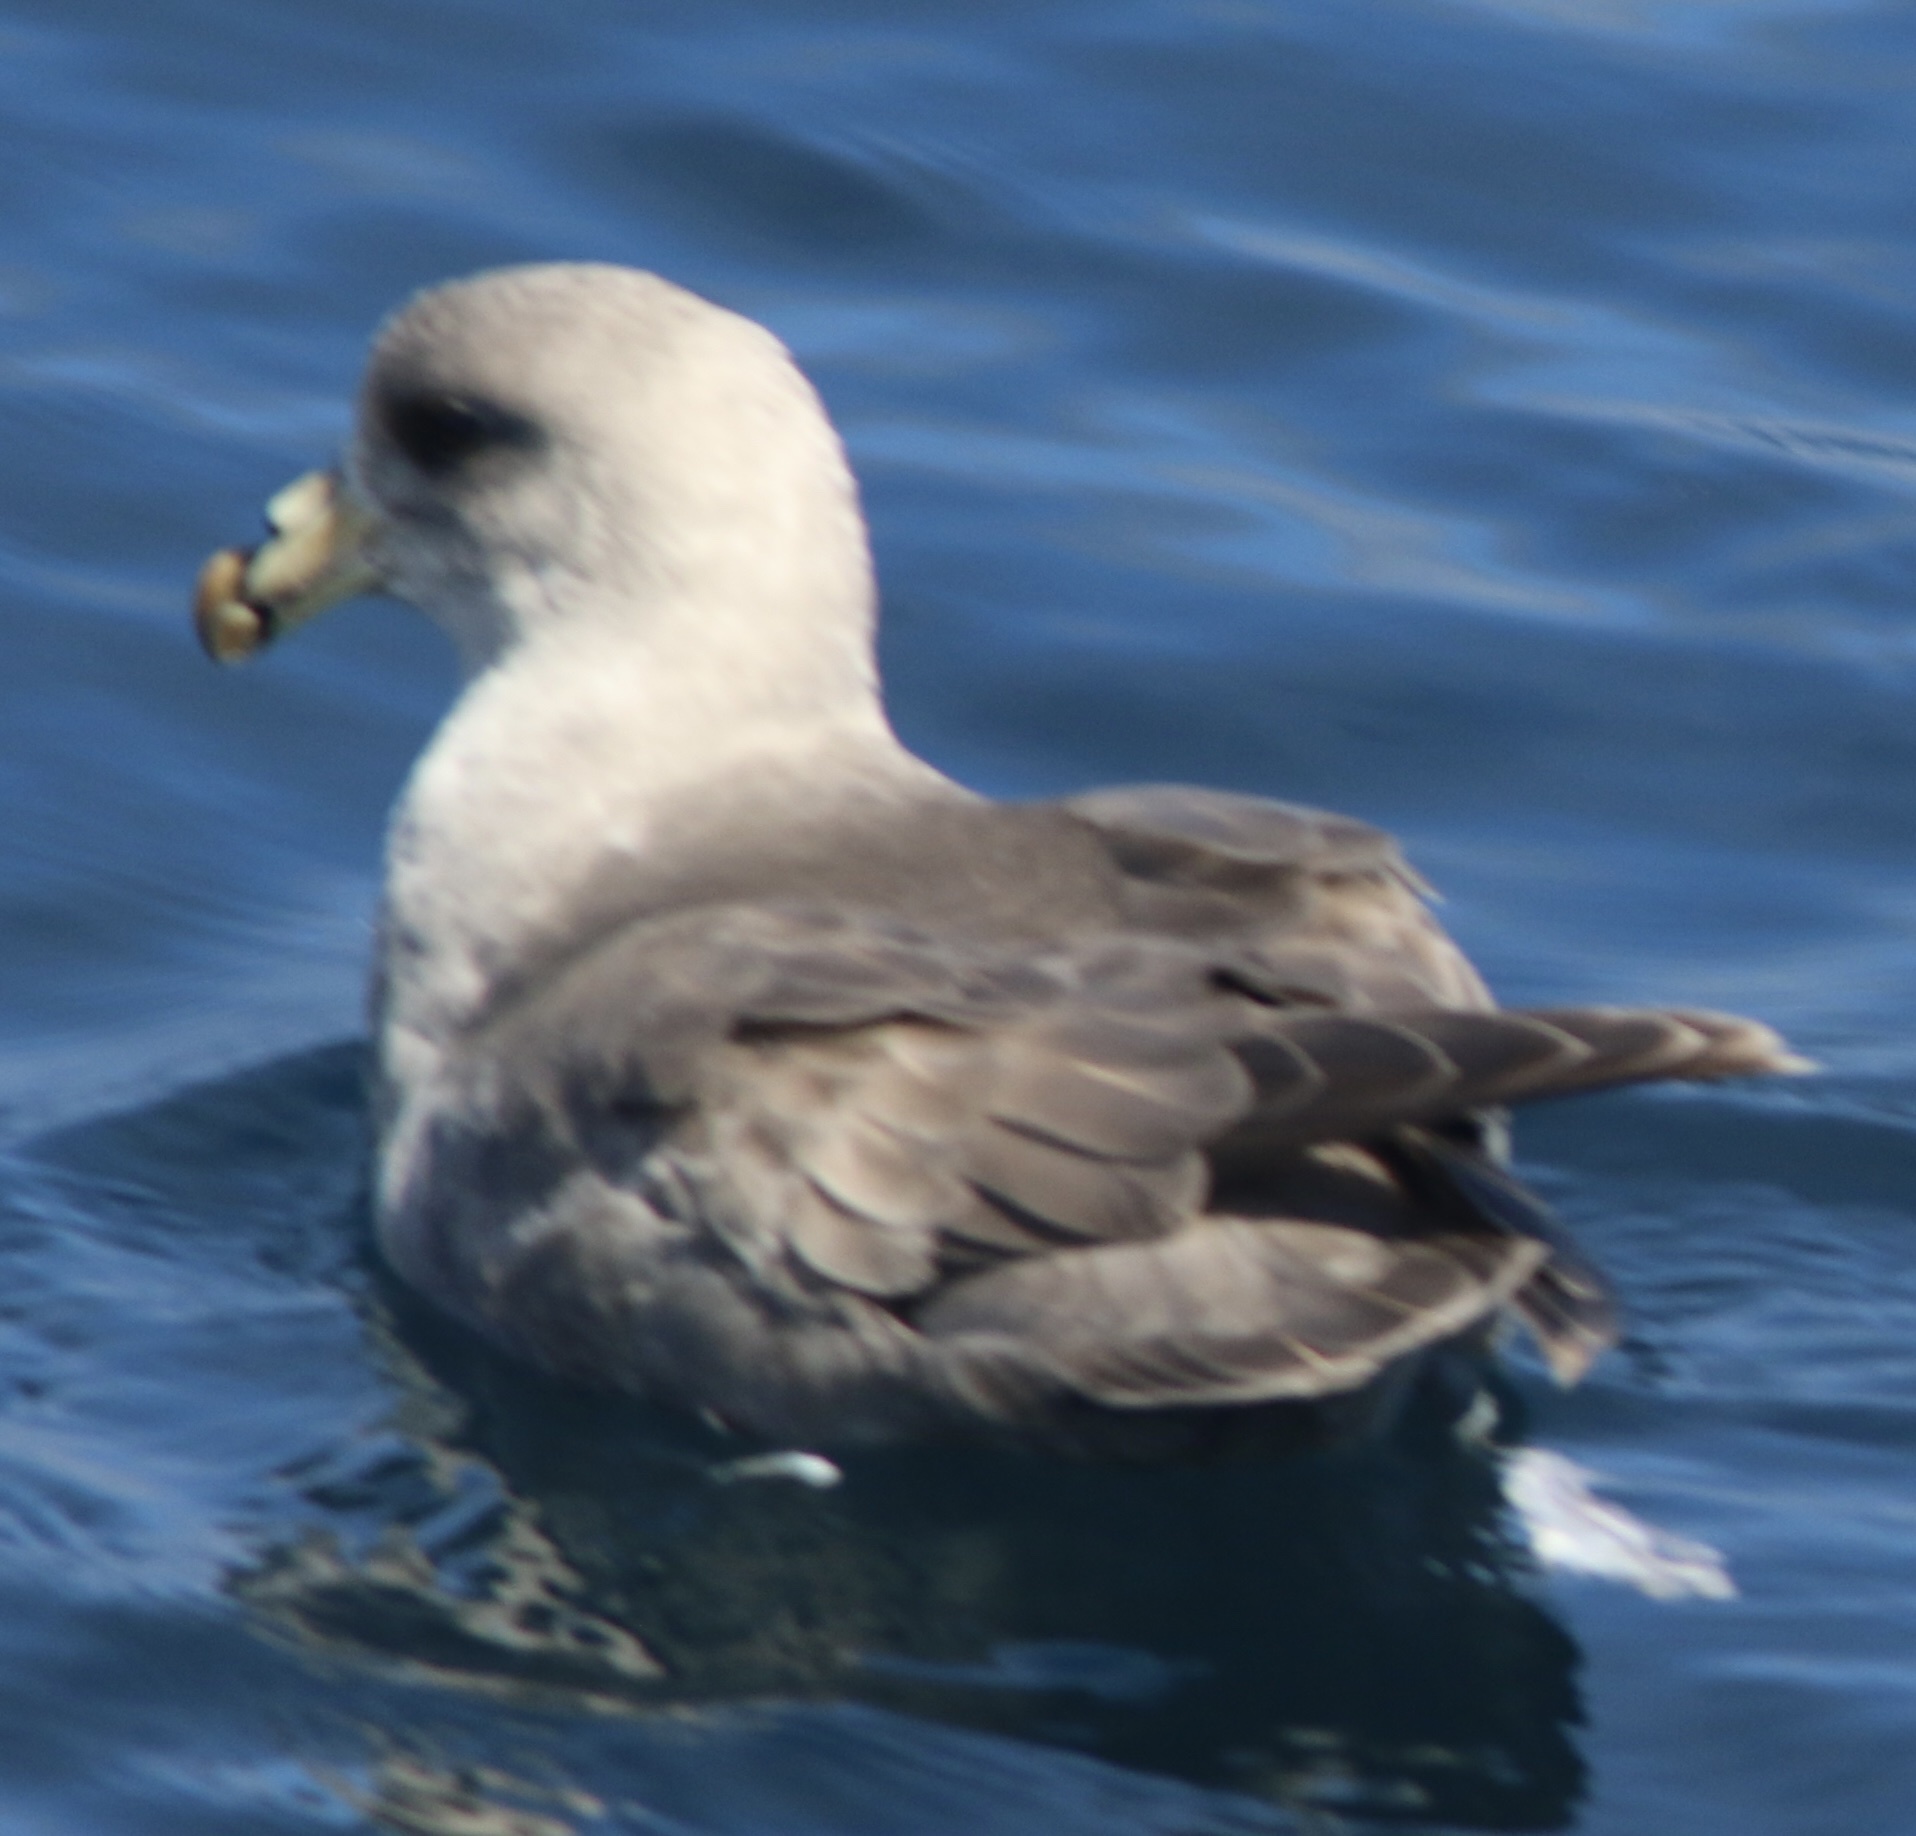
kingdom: Animalia
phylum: Chordata
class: Aves
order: Procellariiformes
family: Procellariidae
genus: Fulmarus
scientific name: Fulmarus glacialis
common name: Northern fulmar
